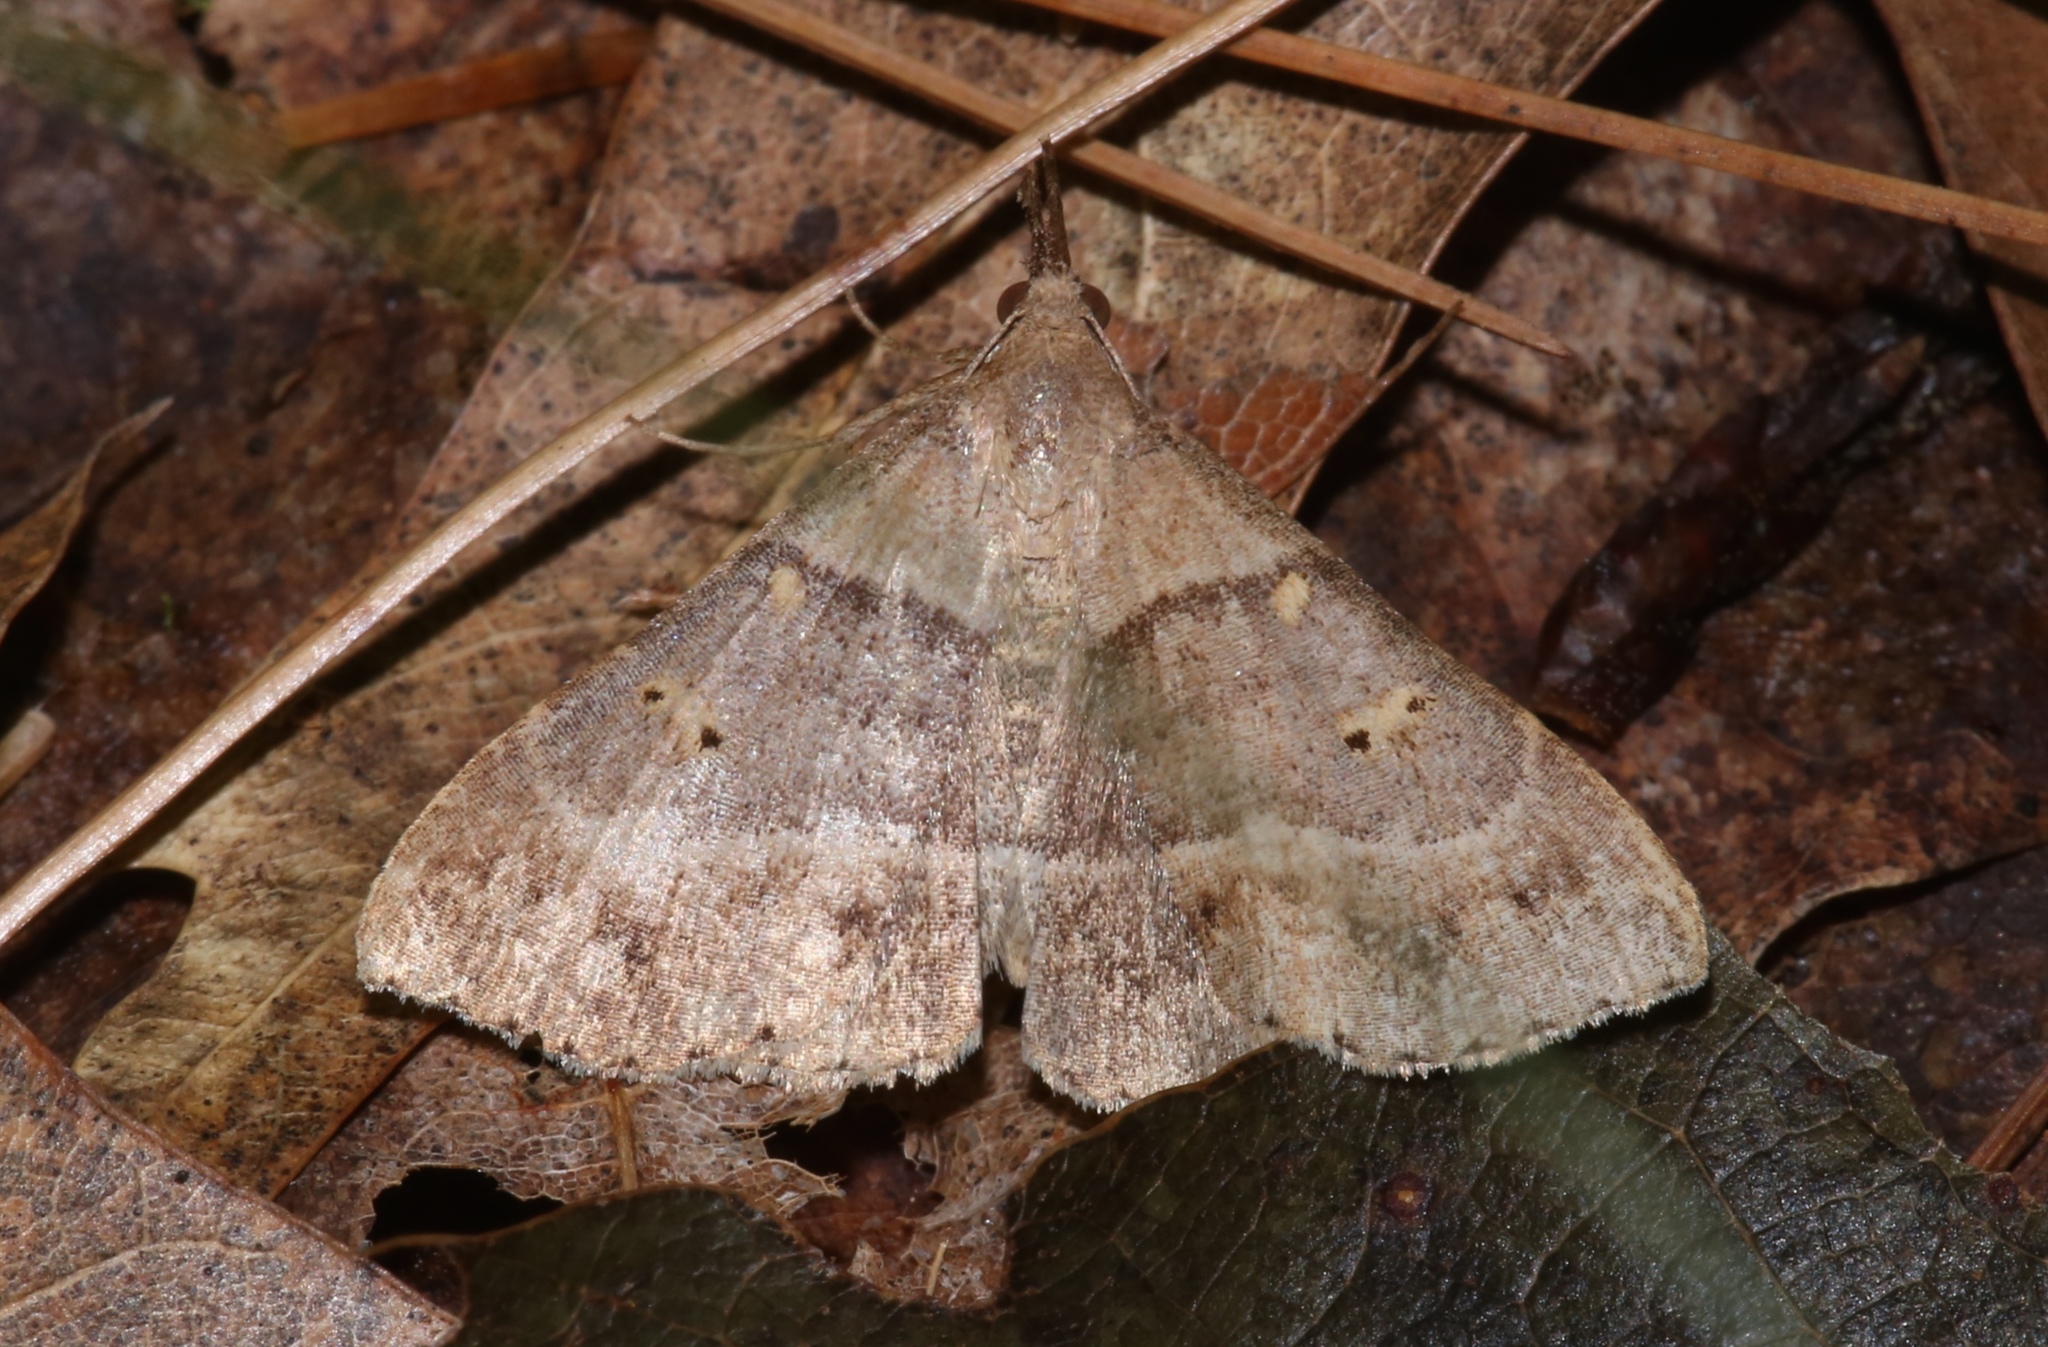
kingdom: Animalia
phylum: Arthropoda
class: Insecta
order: Lepidoptera
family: Erebidae
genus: Renia
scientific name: Renia flavipunctalis
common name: Yellow-spotted renia moth
